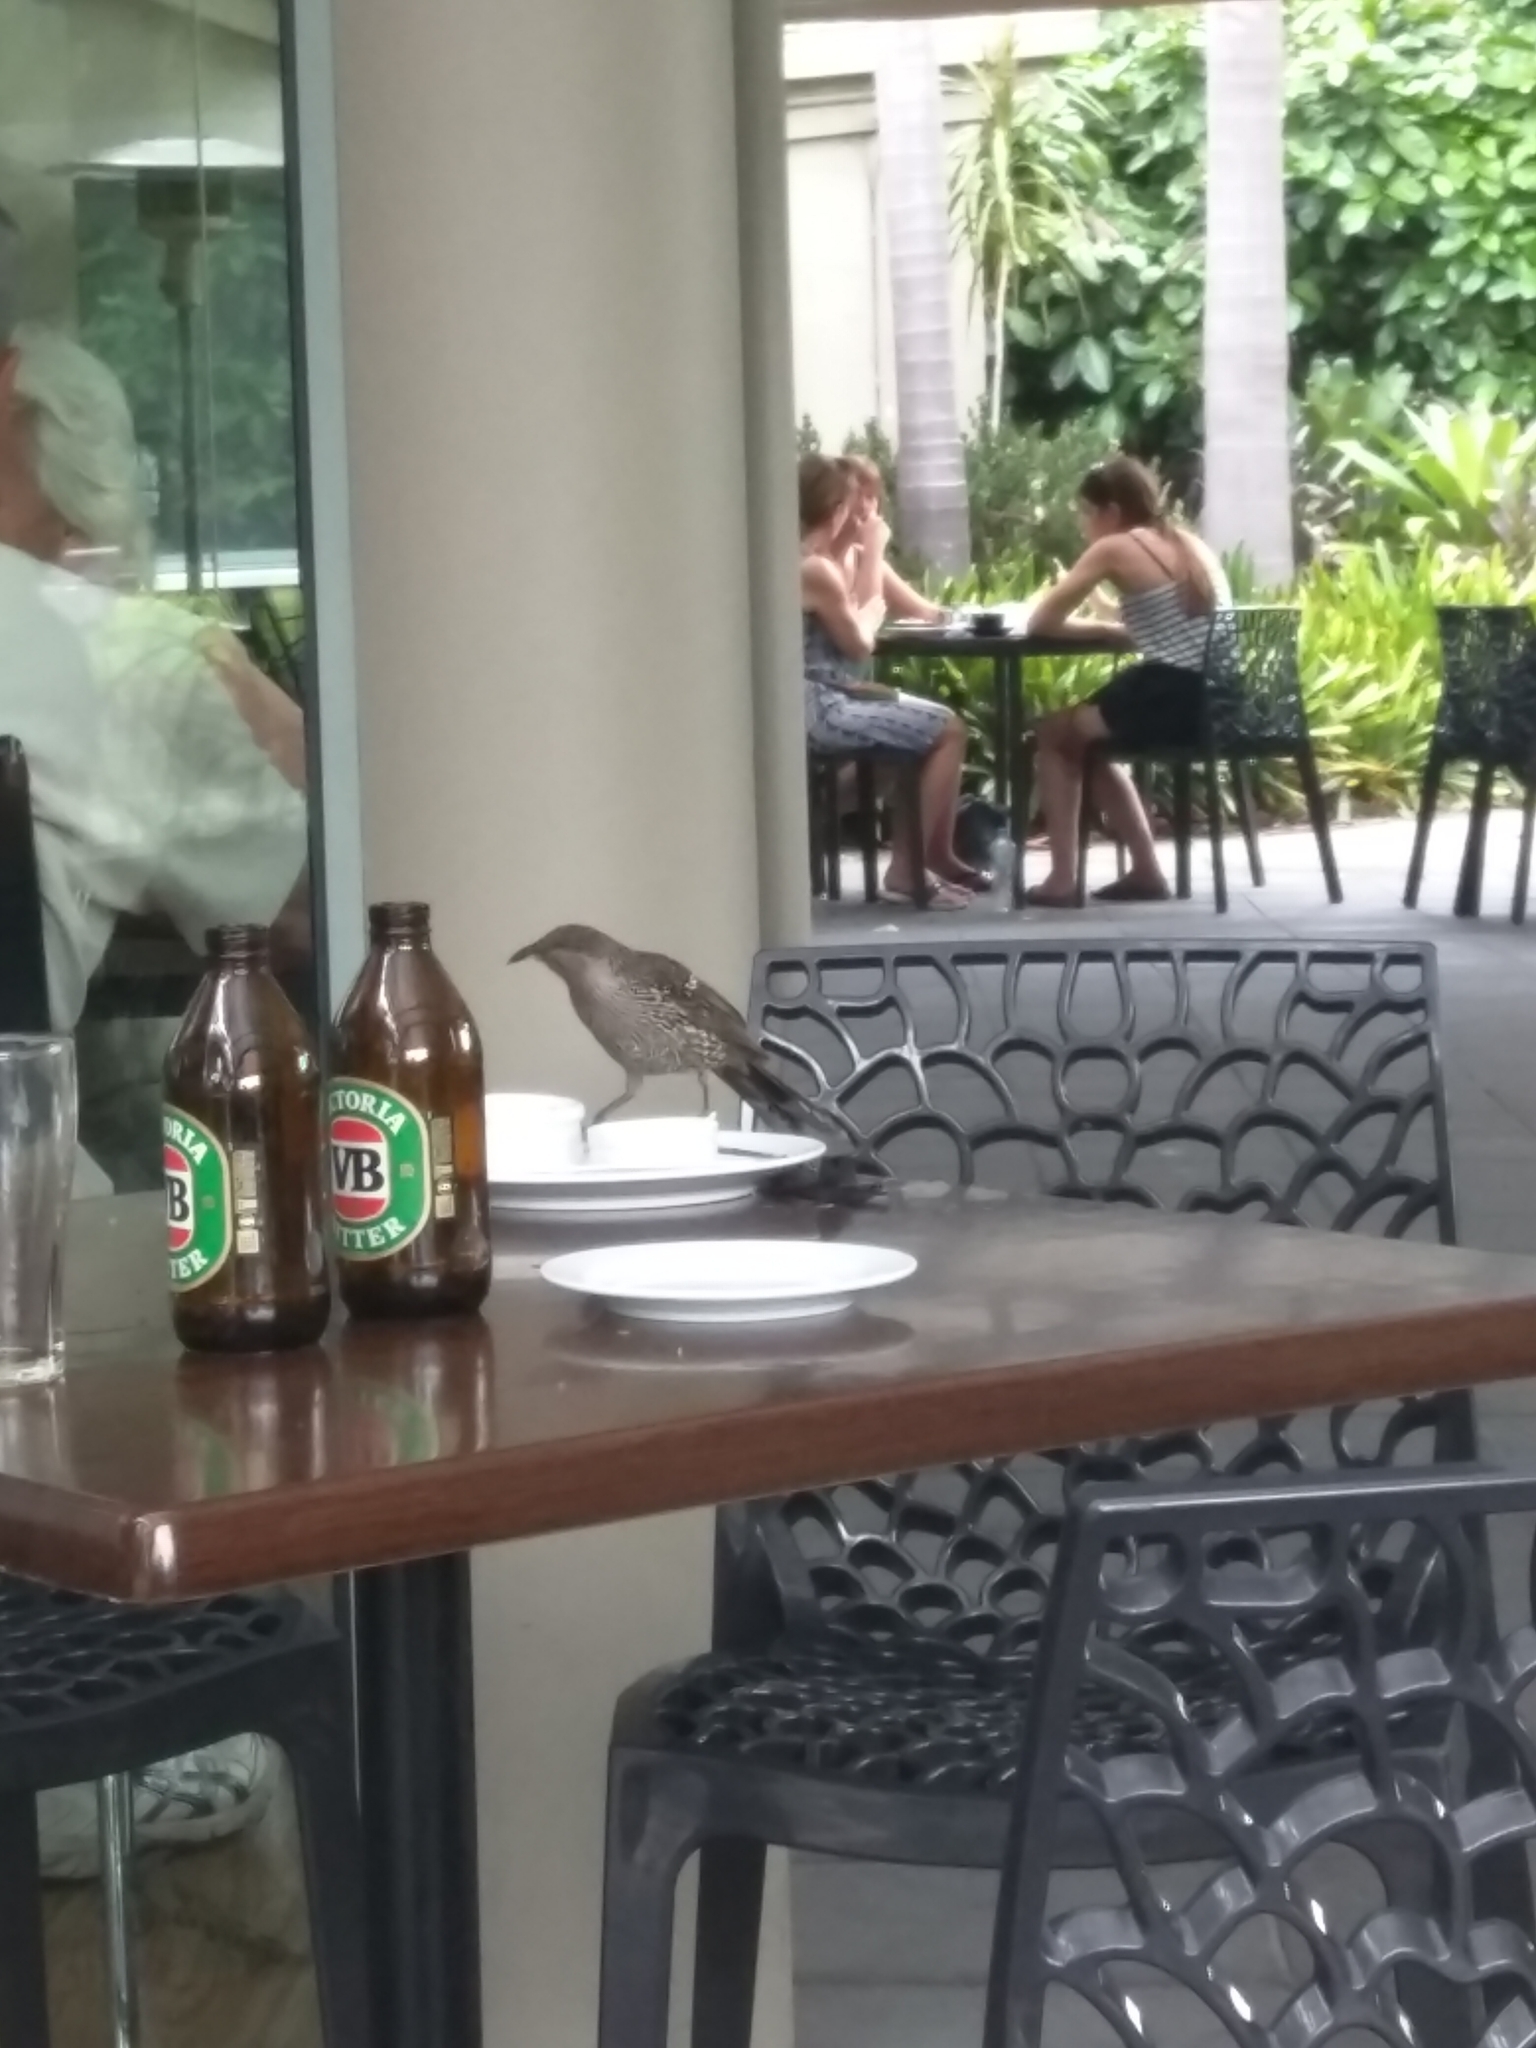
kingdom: Animalia
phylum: Chordata
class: Aves
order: Passeriformes
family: Meliphagidae
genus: Anthochaera
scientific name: Anthochaera chrysoptera
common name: Little wattlebird
